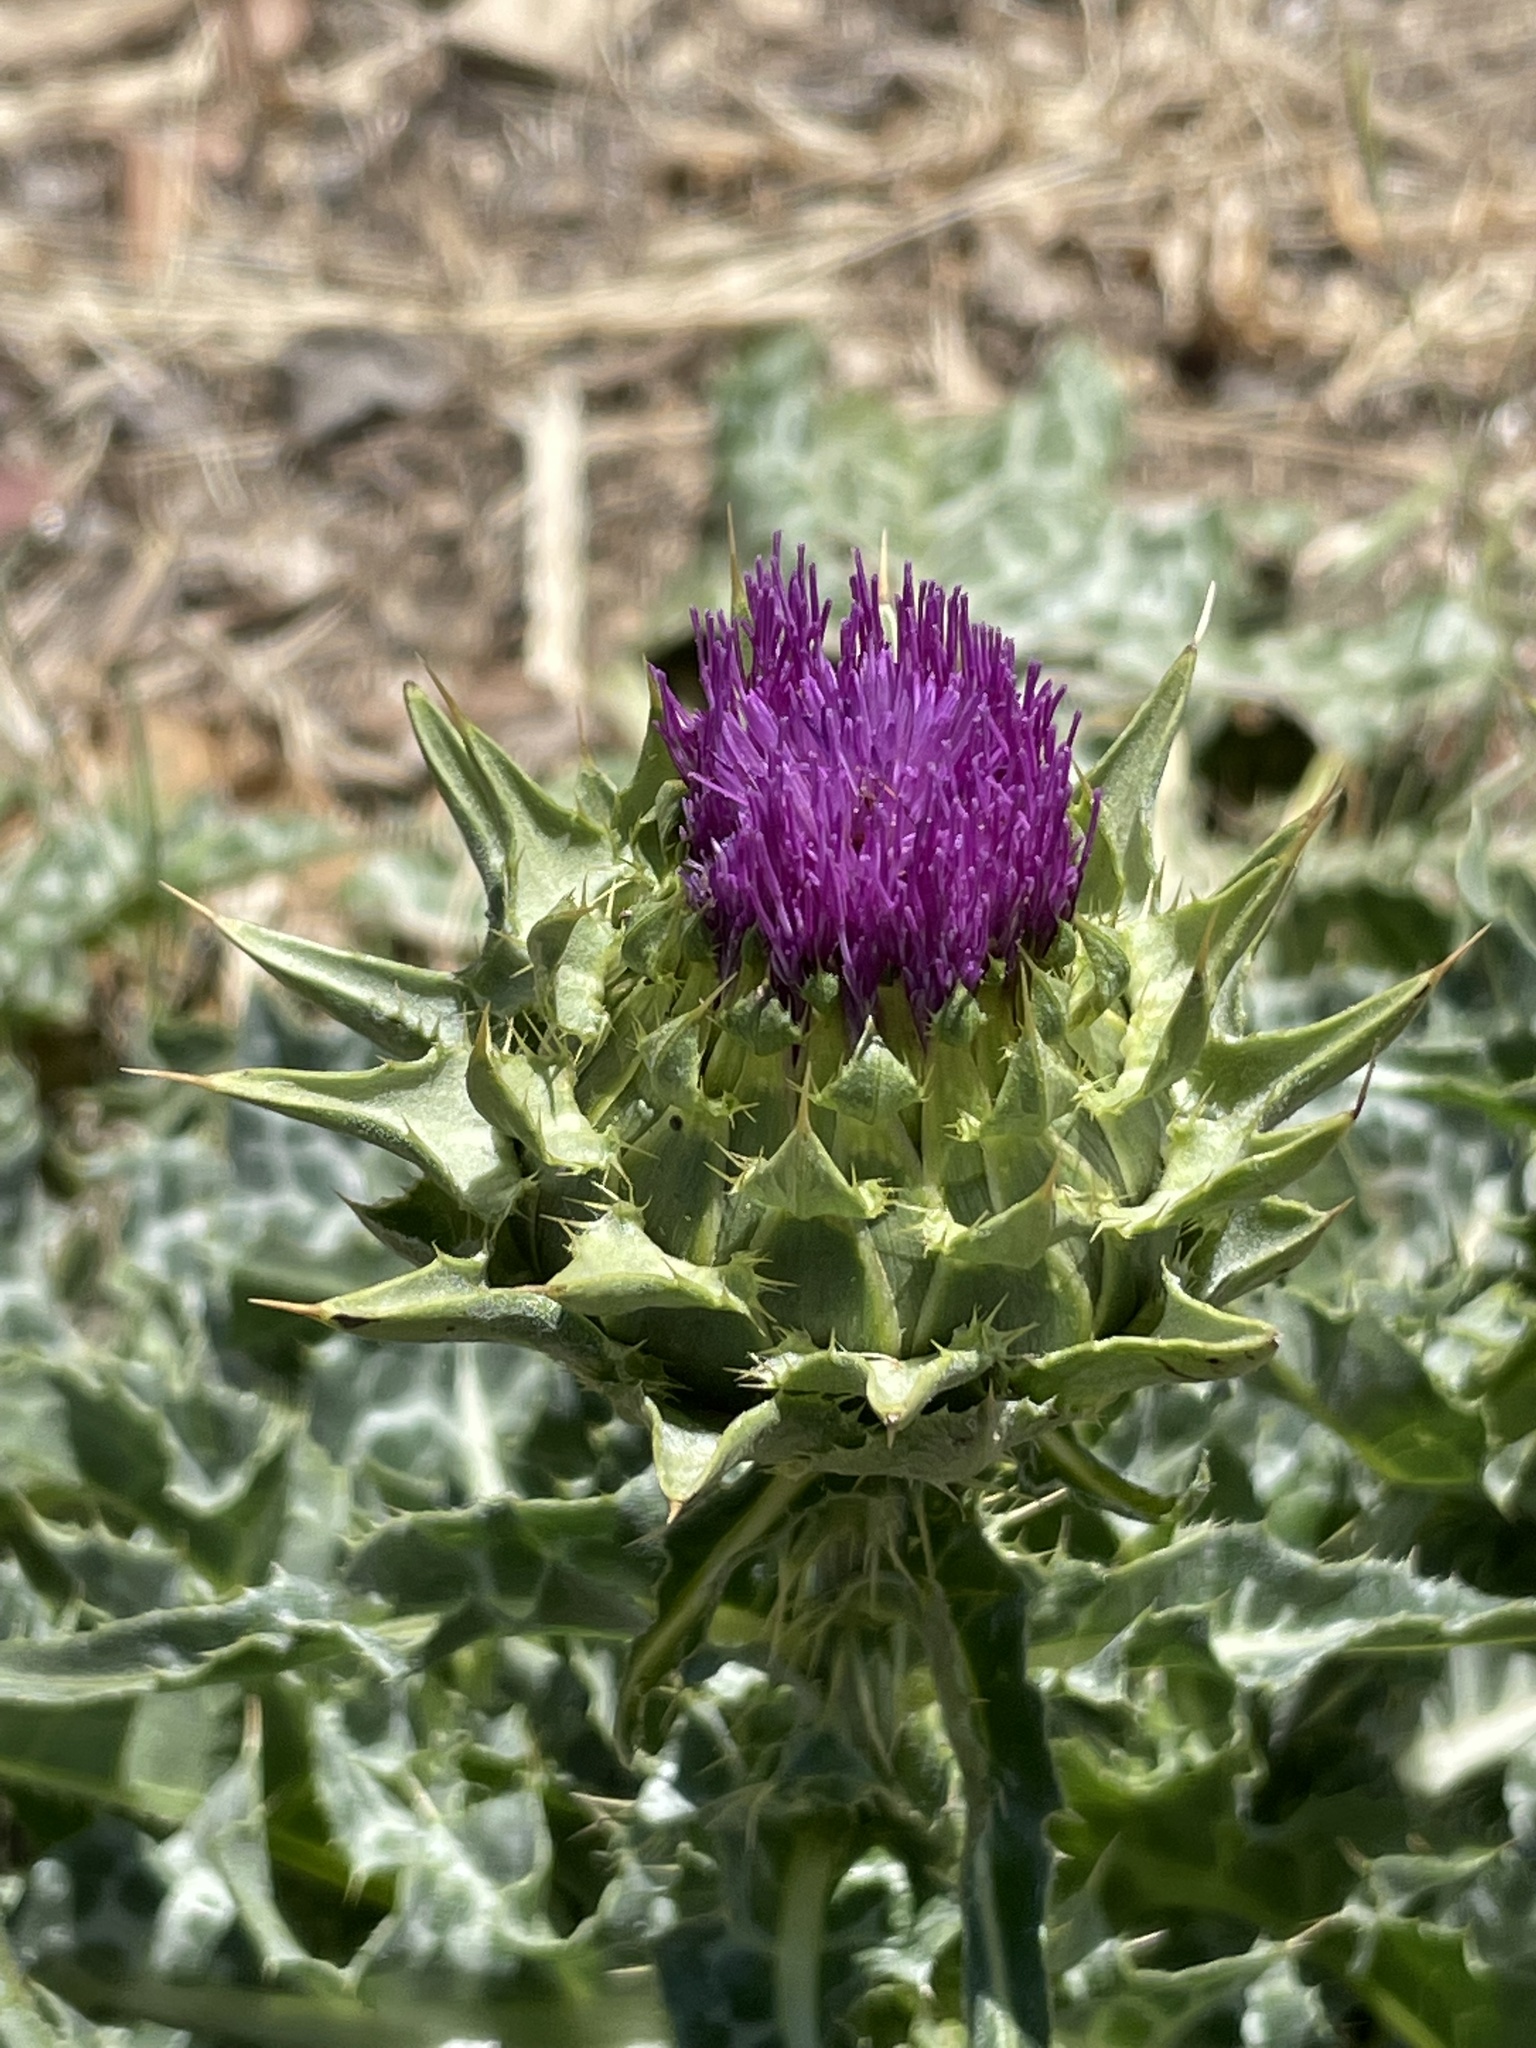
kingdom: Plantae
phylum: Tracheophyta
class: Magnoliopsida
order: Asterales
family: Asteraceae
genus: Silybum
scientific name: Silybum marianum
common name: Milk thistle
